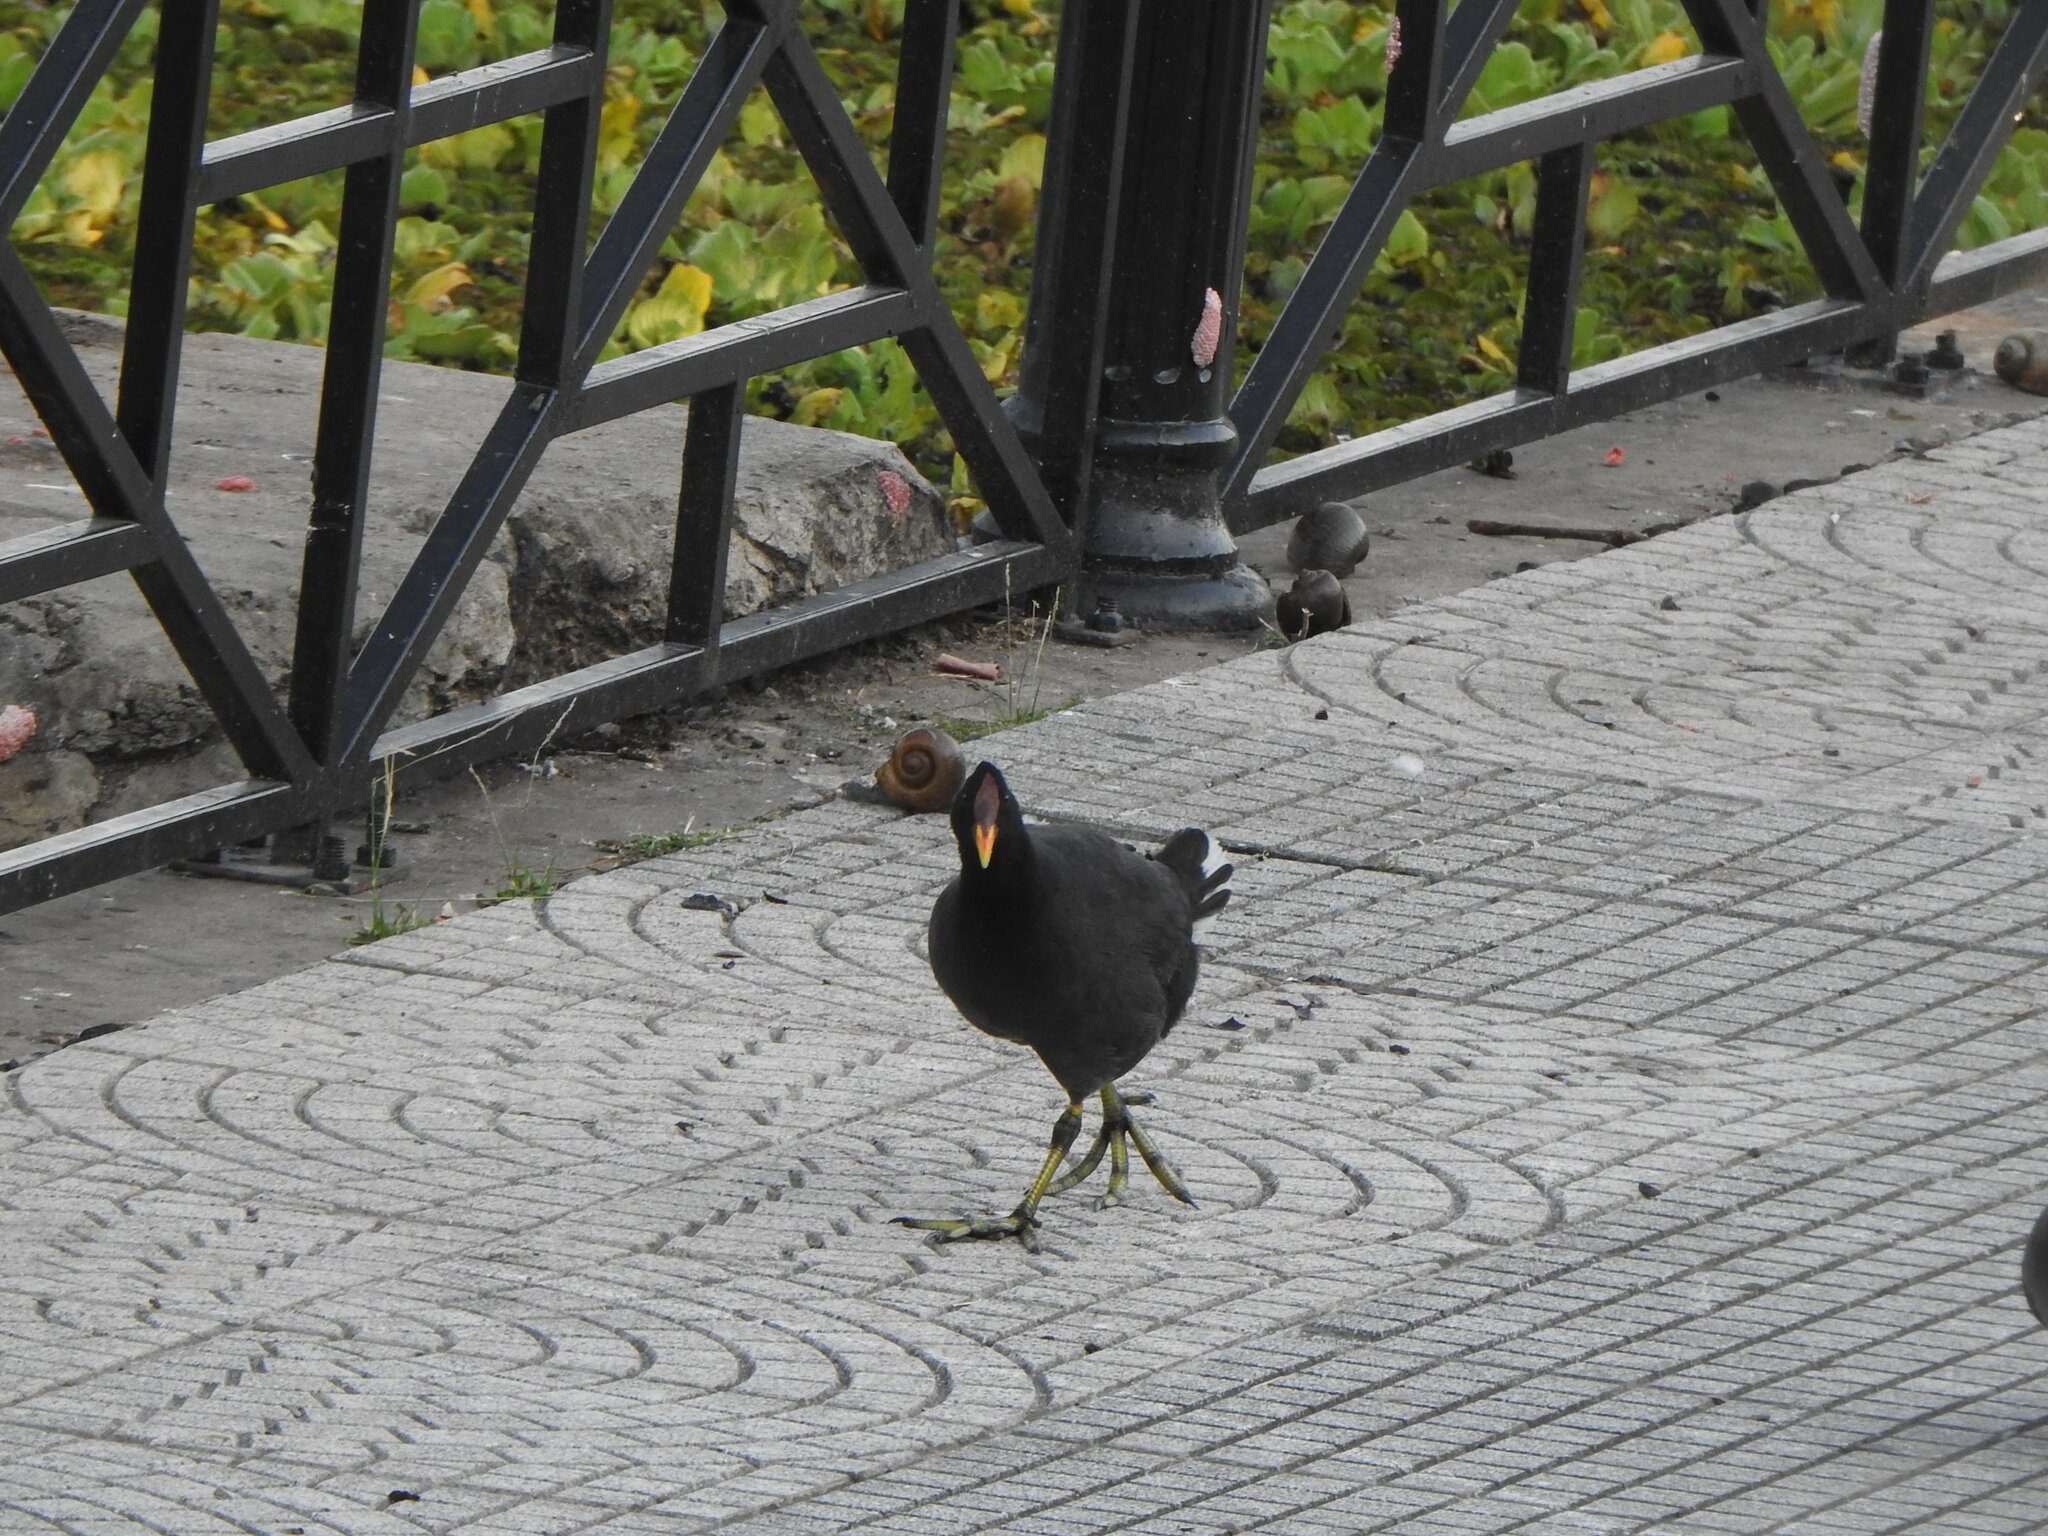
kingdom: Animalia
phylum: Chordata
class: Aves
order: Gruiformes
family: Rallidae
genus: Fulica
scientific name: Fulica rufifrons
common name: Red-fronted coot
